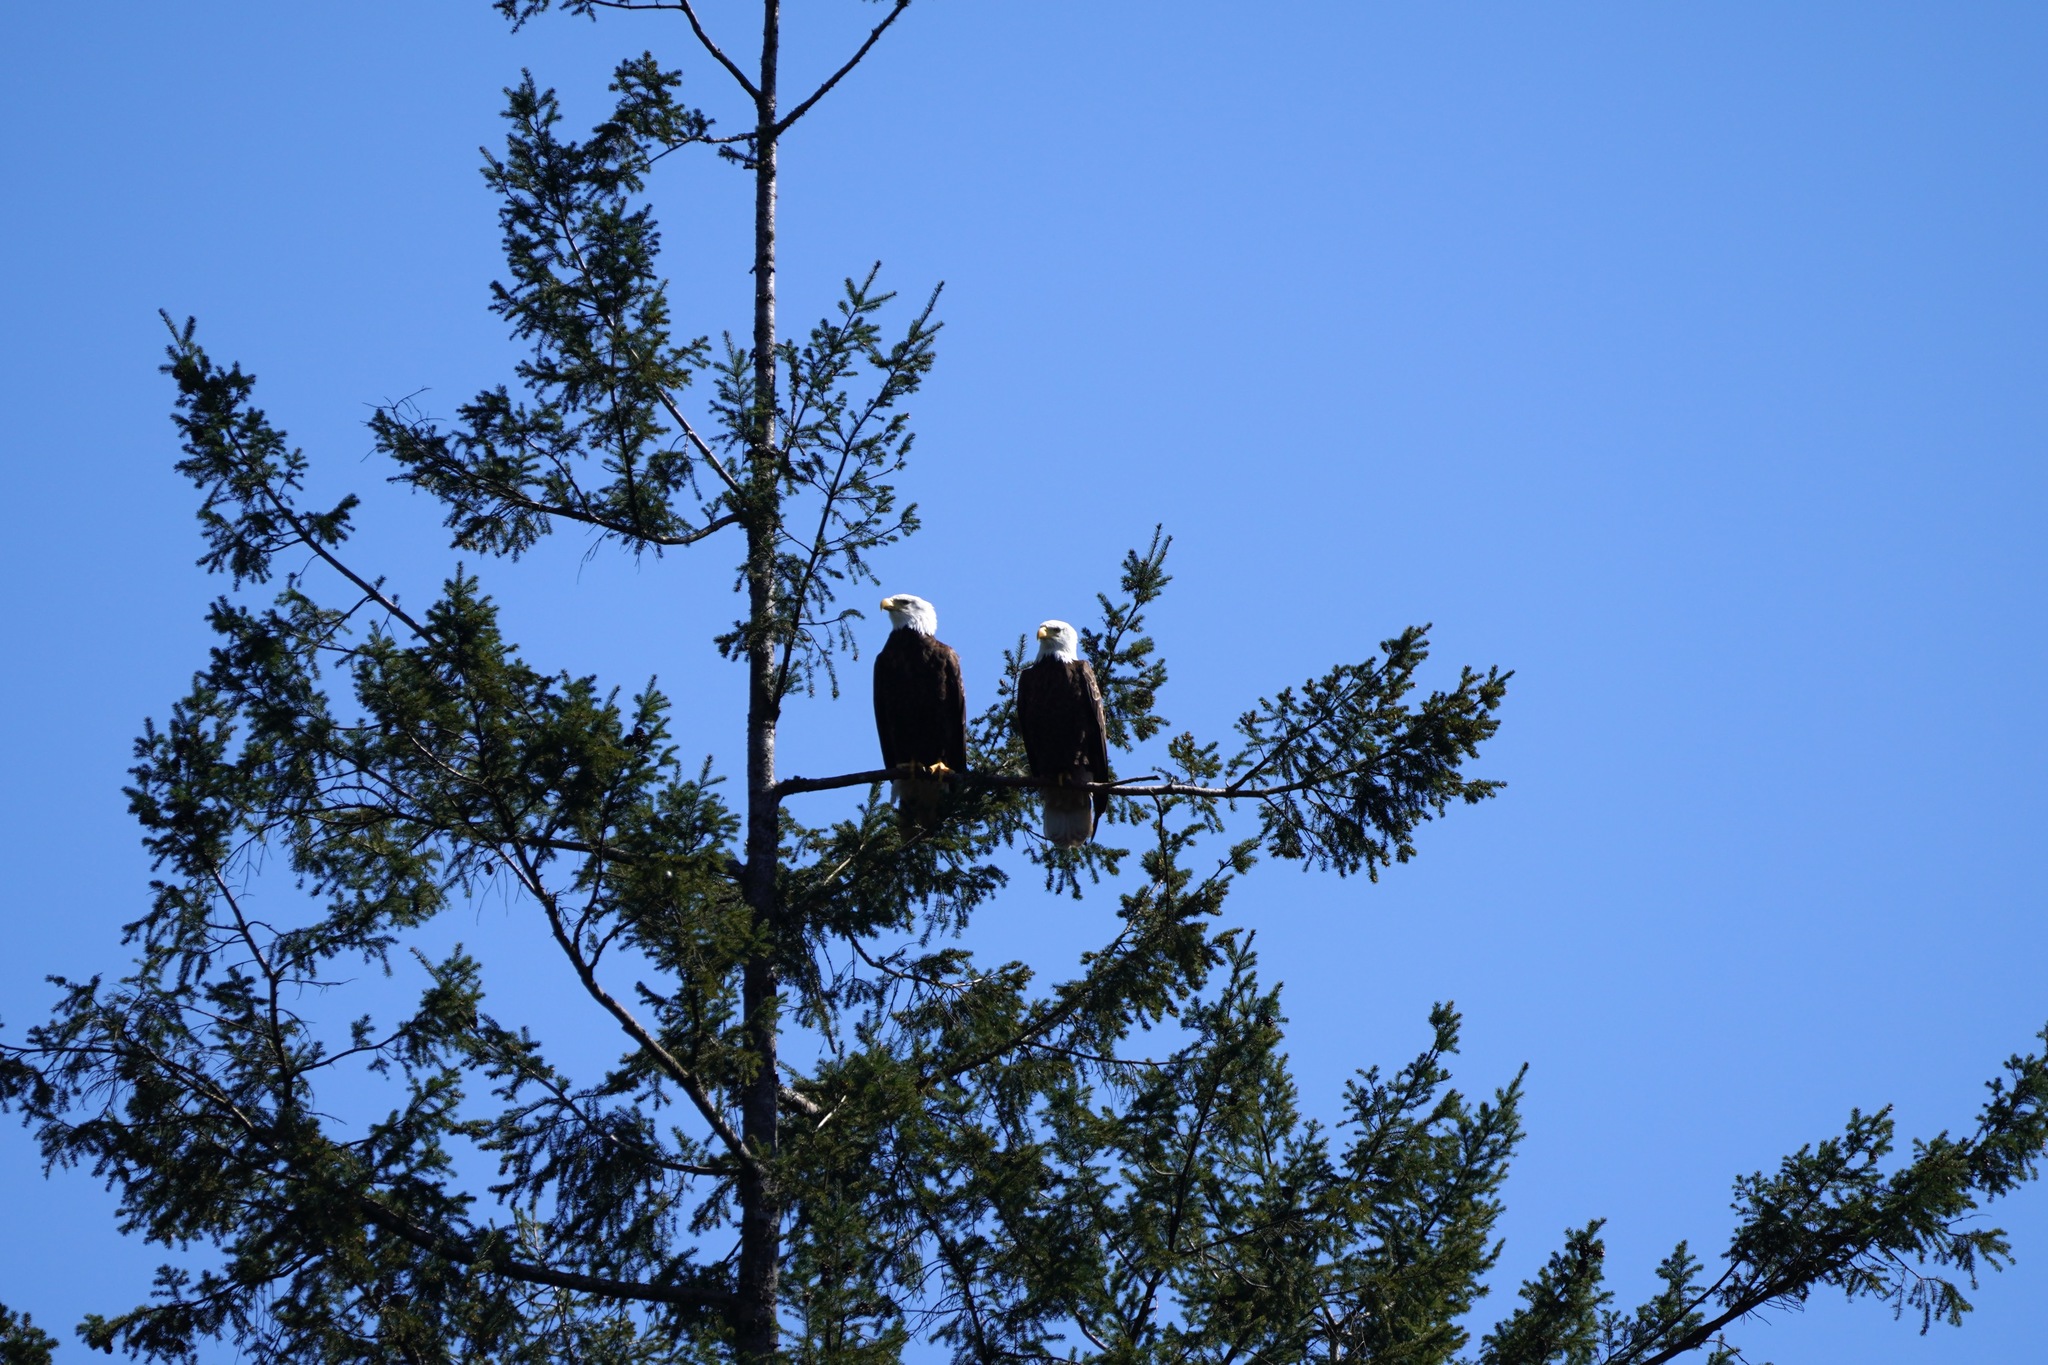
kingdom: Animalia
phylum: Chordata
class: Aves
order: Accipitriformes
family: Accipitridae
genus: Haliaeetus
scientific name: Haliaeetus leucocephalus
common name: Bald eagle
